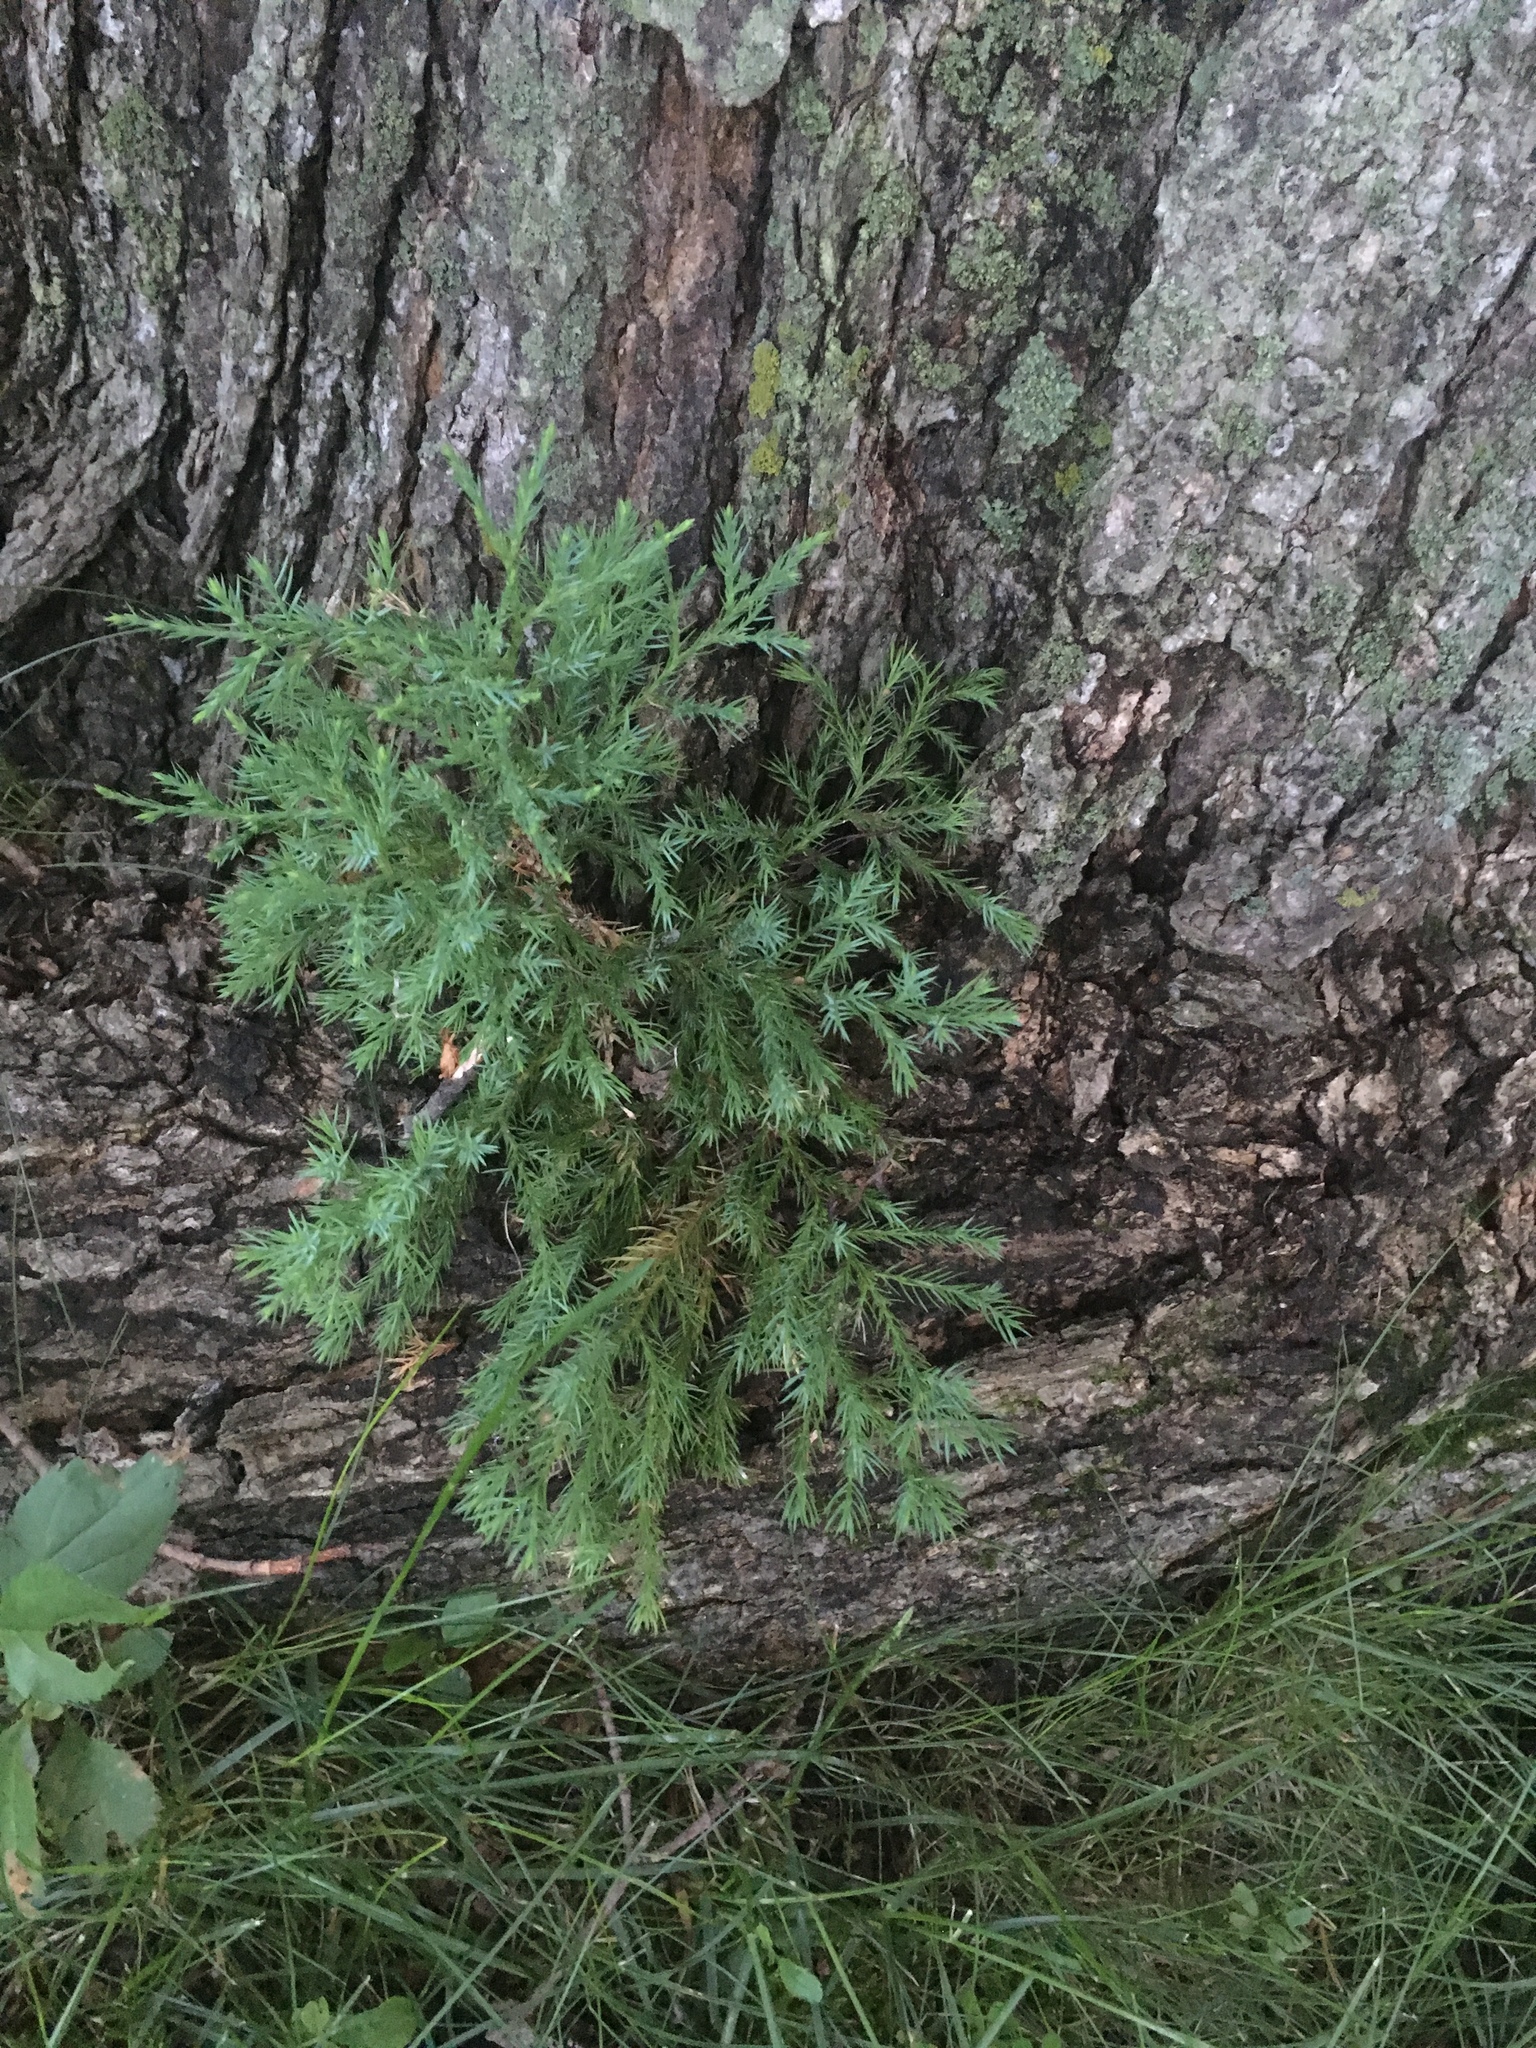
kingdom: Plantae
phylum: Tracheophyta
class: Pinopsida
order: Pinales
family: Cupressaceae
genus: Juniperus
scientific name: Juniperus virginiana
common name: Red juniper
